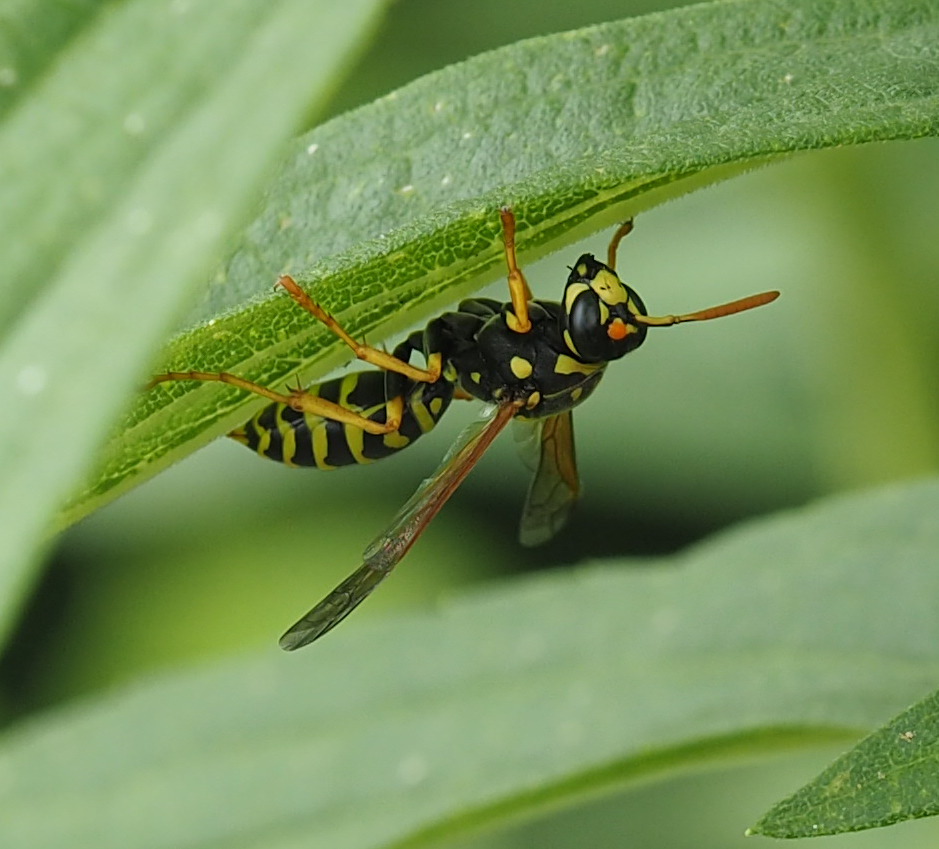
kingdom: Animalia
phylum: Arthropoda
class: Insecta
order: Hymenoptera
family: Eumenidae
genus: Polistes
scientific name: Polistes dominula
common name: Paper wasp
